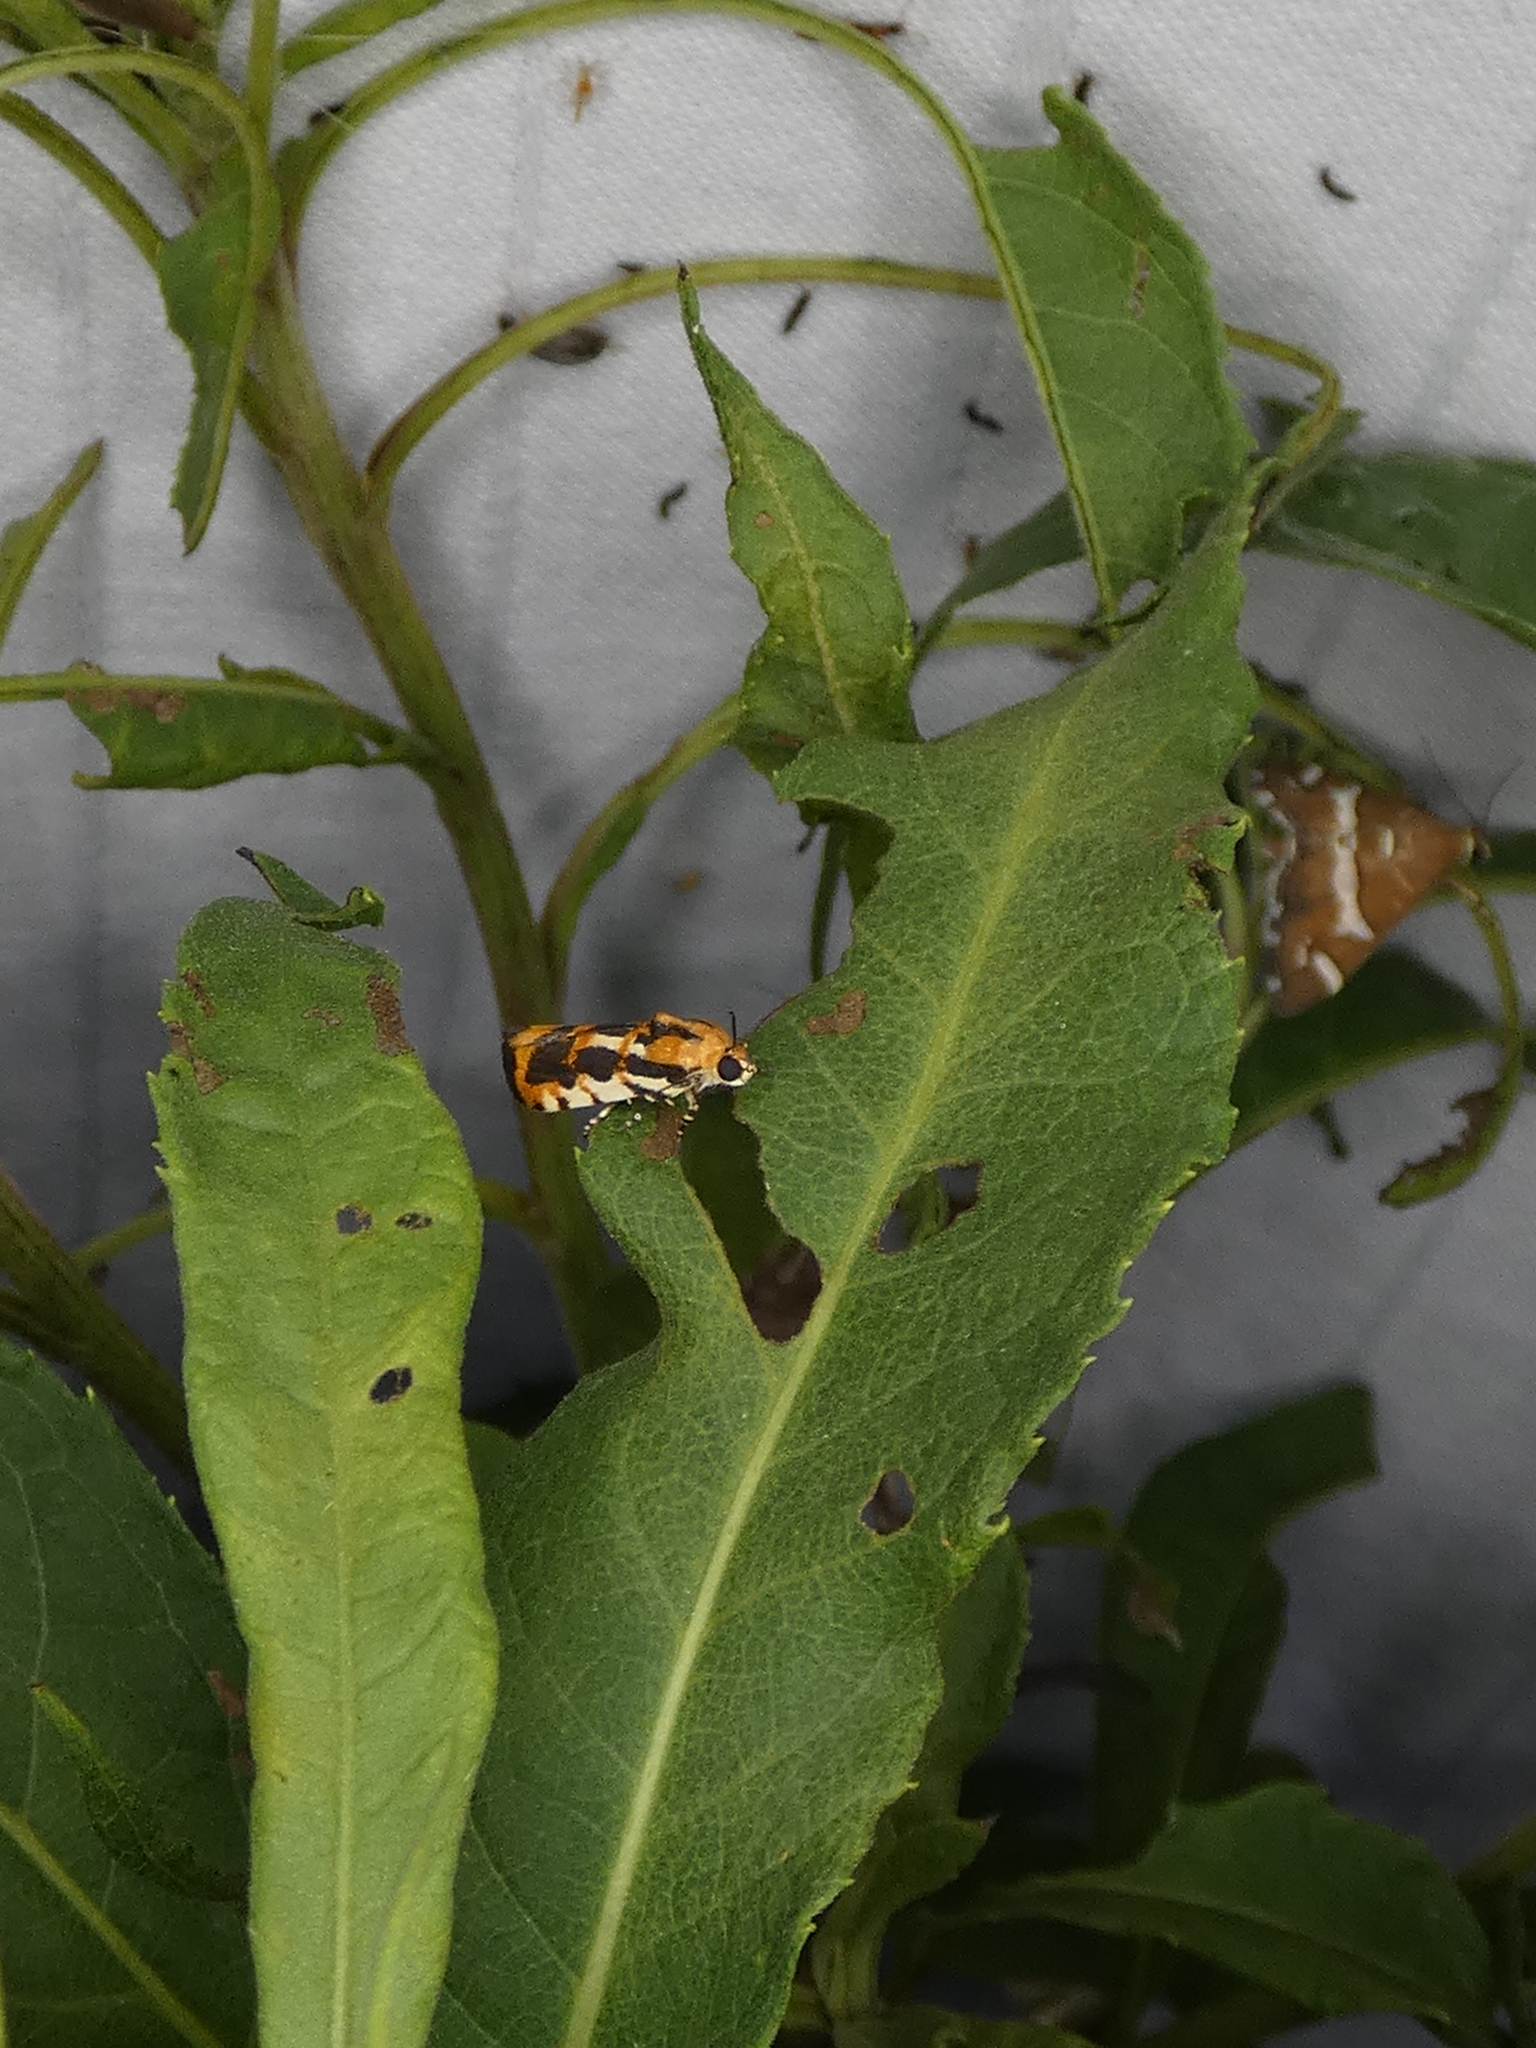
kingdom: Animalia
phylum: Arthropoda
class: Insecta
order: Lepidoptera
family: Noctuidae
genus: Acontia
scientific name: Acontia leo
